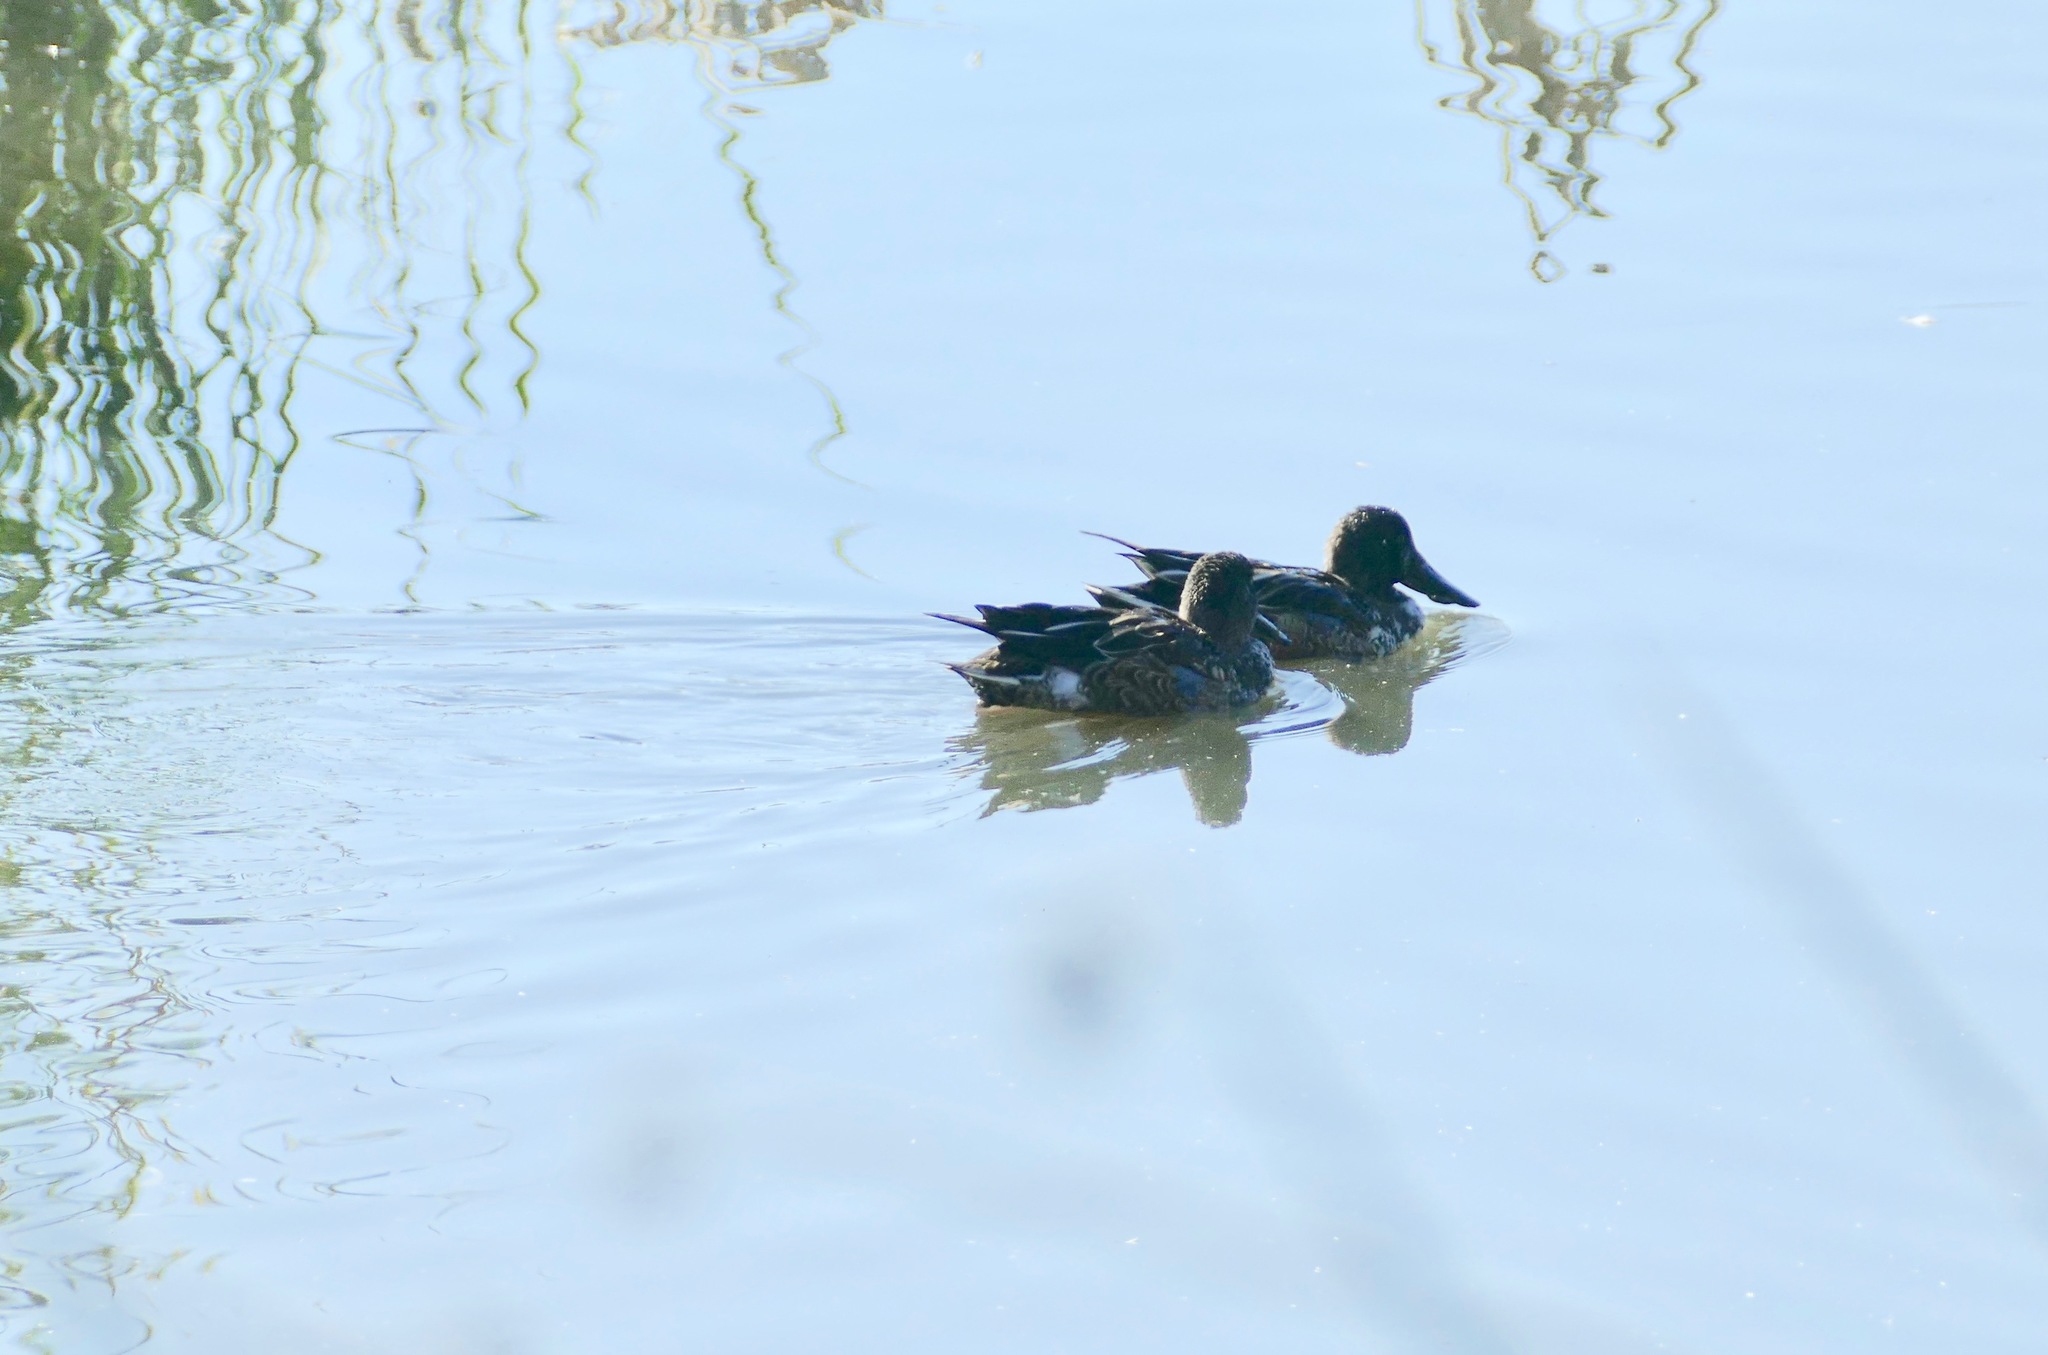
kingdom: Animalia
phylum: Chordata
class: Aves
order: Anseriformes
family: Anatidae
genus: Spatula
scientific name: Spatula clypeata
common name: Northern shoveler
